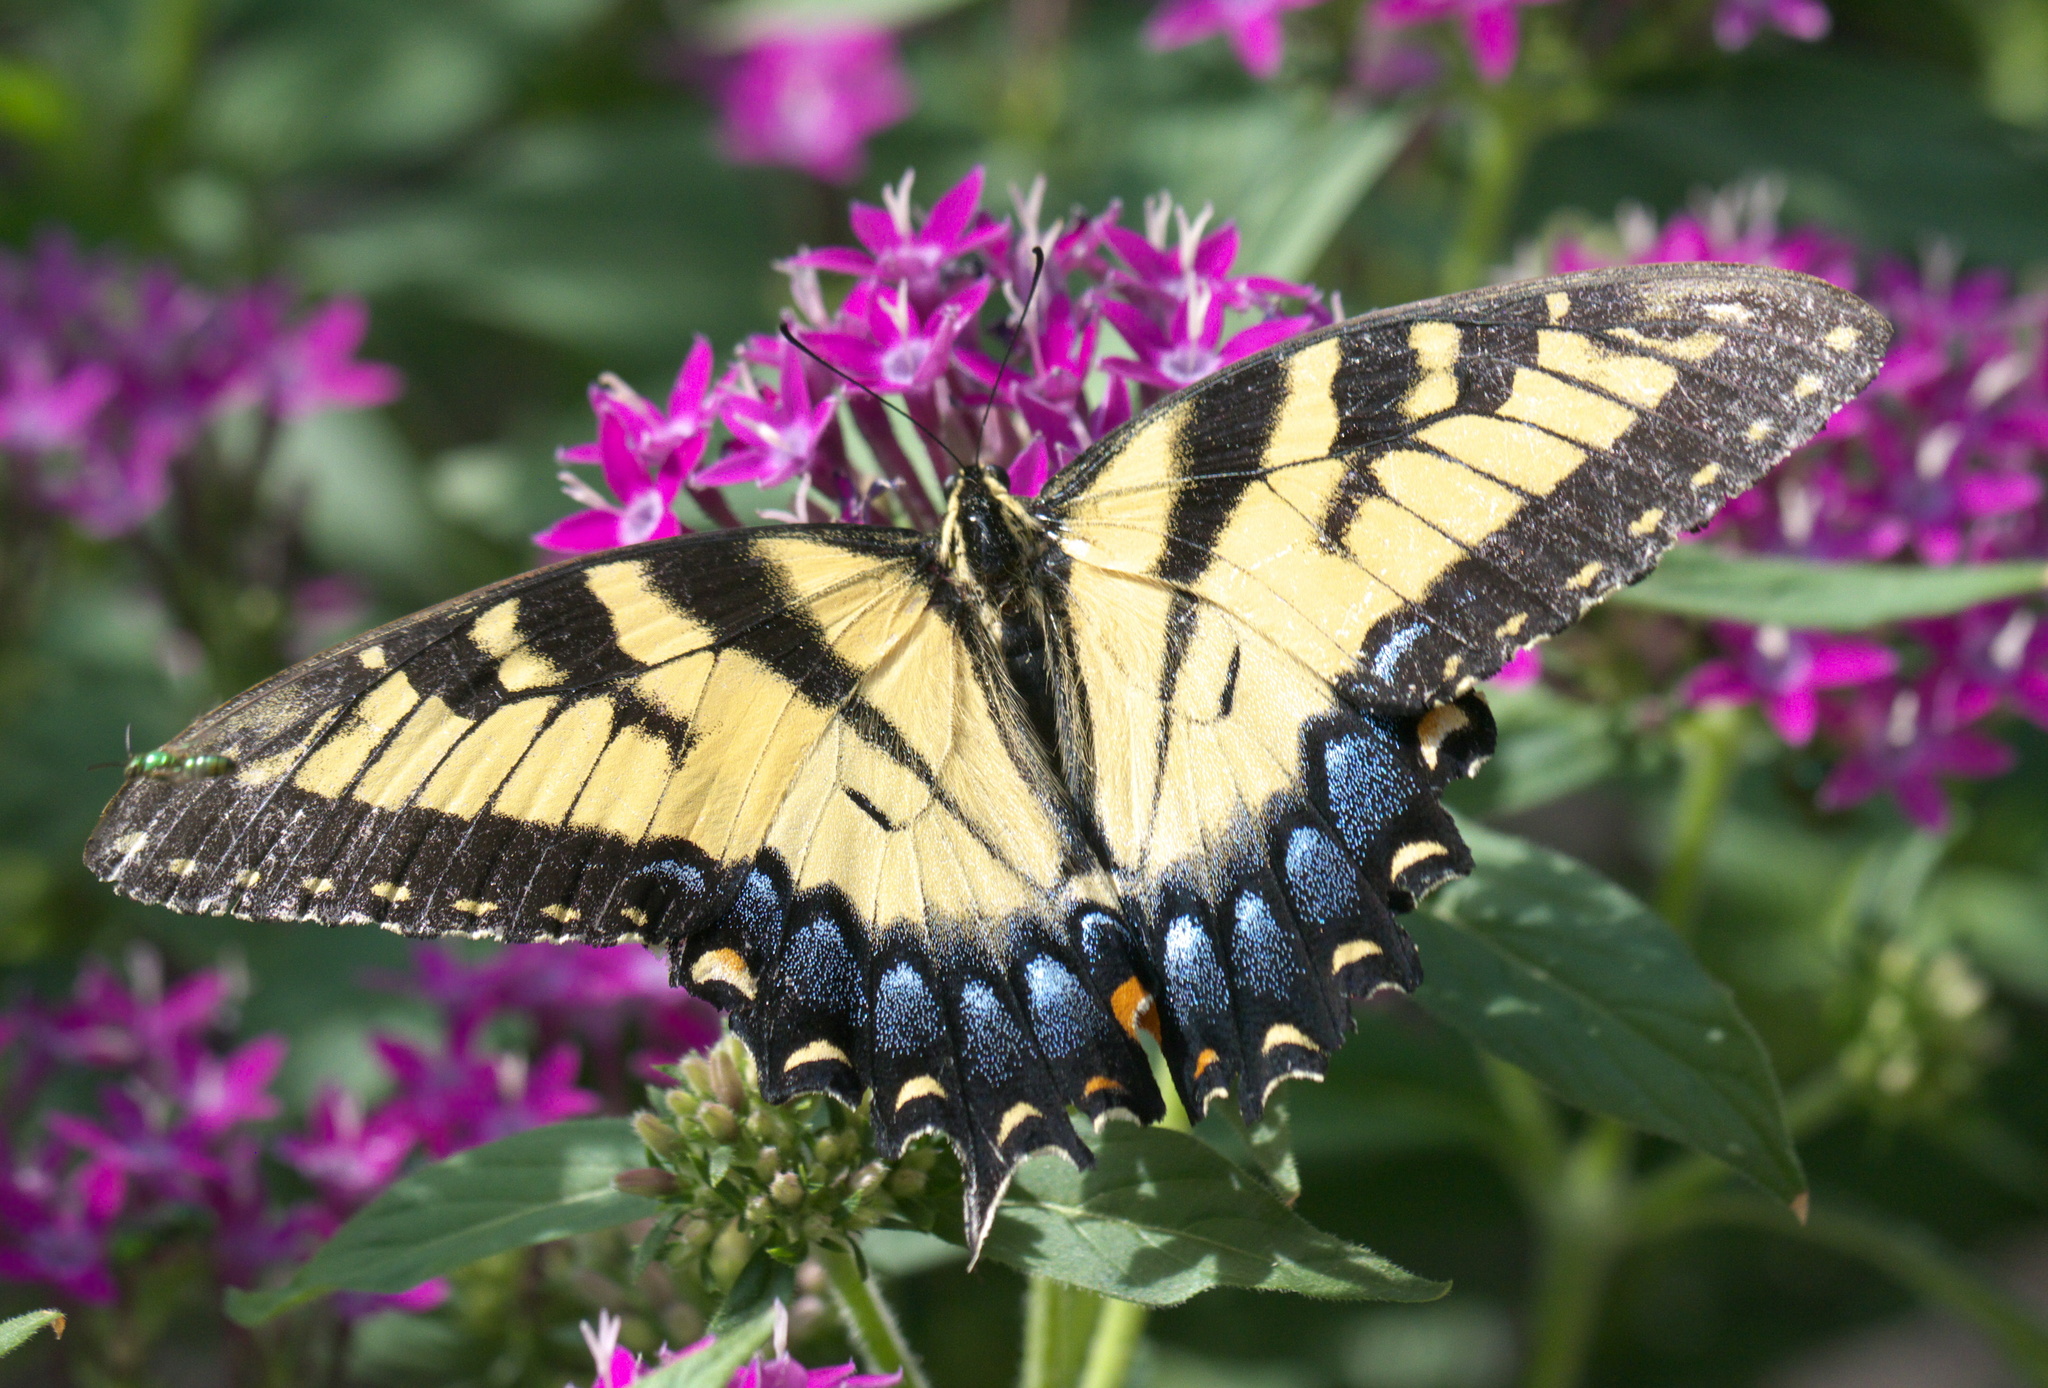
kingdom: Animalia
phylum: Arthropoda
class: Insecta
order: Lepidoptera
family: Papilionidae
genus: Papilio
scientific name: Papilio glaucus
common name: Tiger swallowtail
